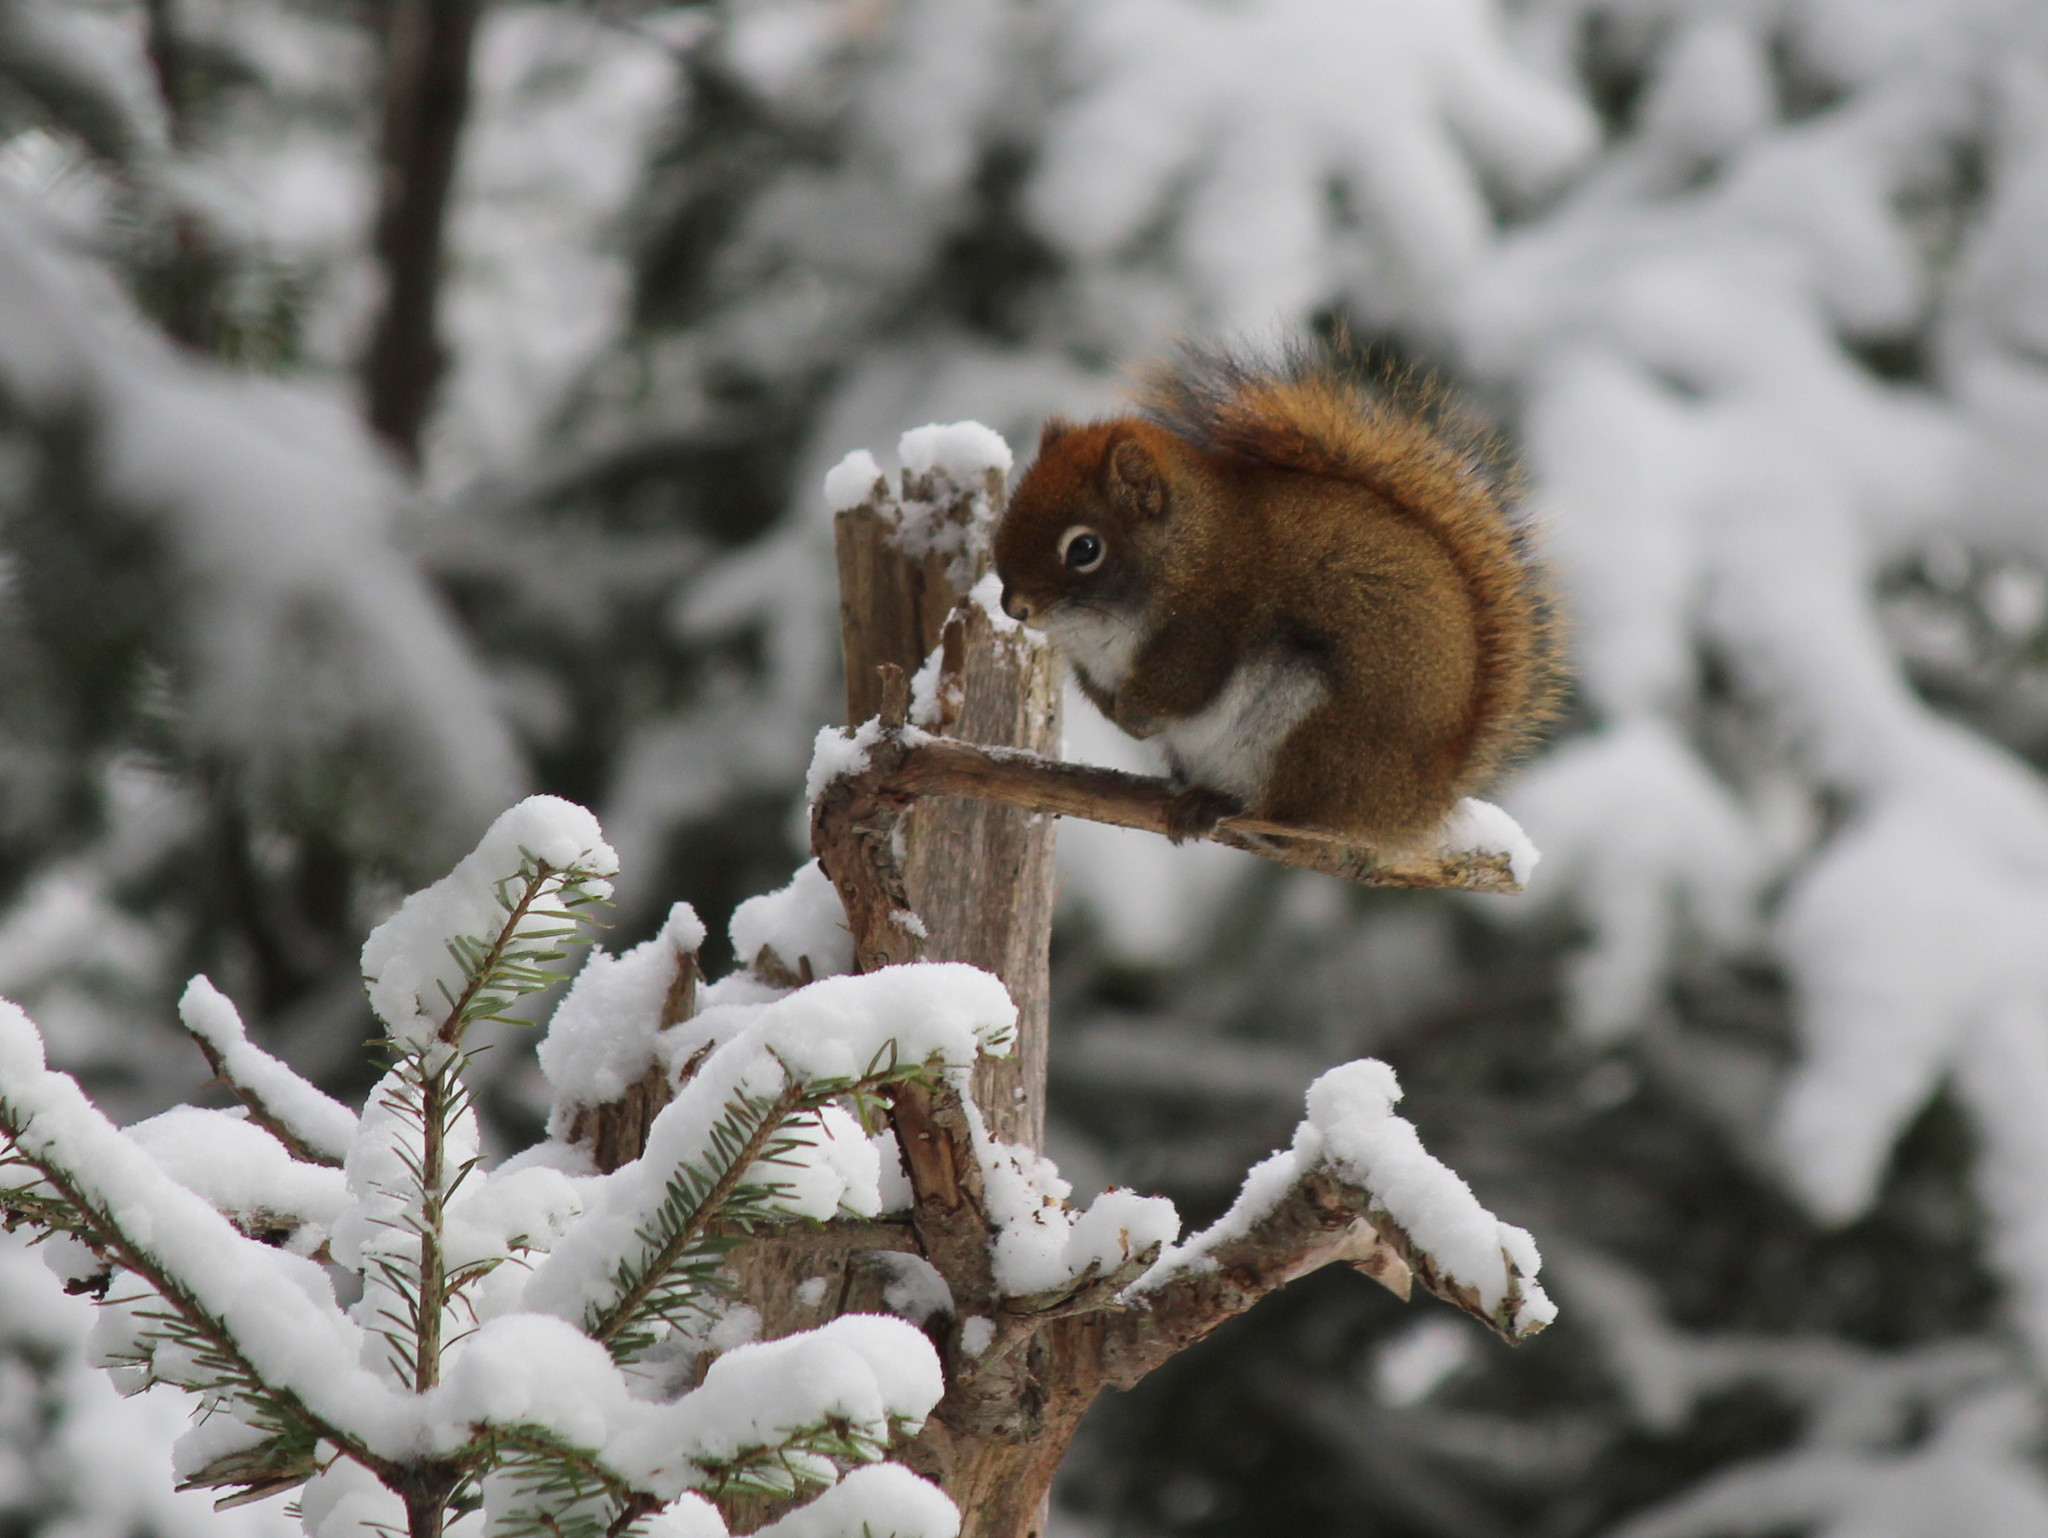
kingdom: Animalia
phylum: Chordata
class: Mammalia
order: Rodentia
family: Sciuridae
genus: Tamiasciurus
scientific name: Tamiasciurus hudsonicus
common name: Red squirrel
